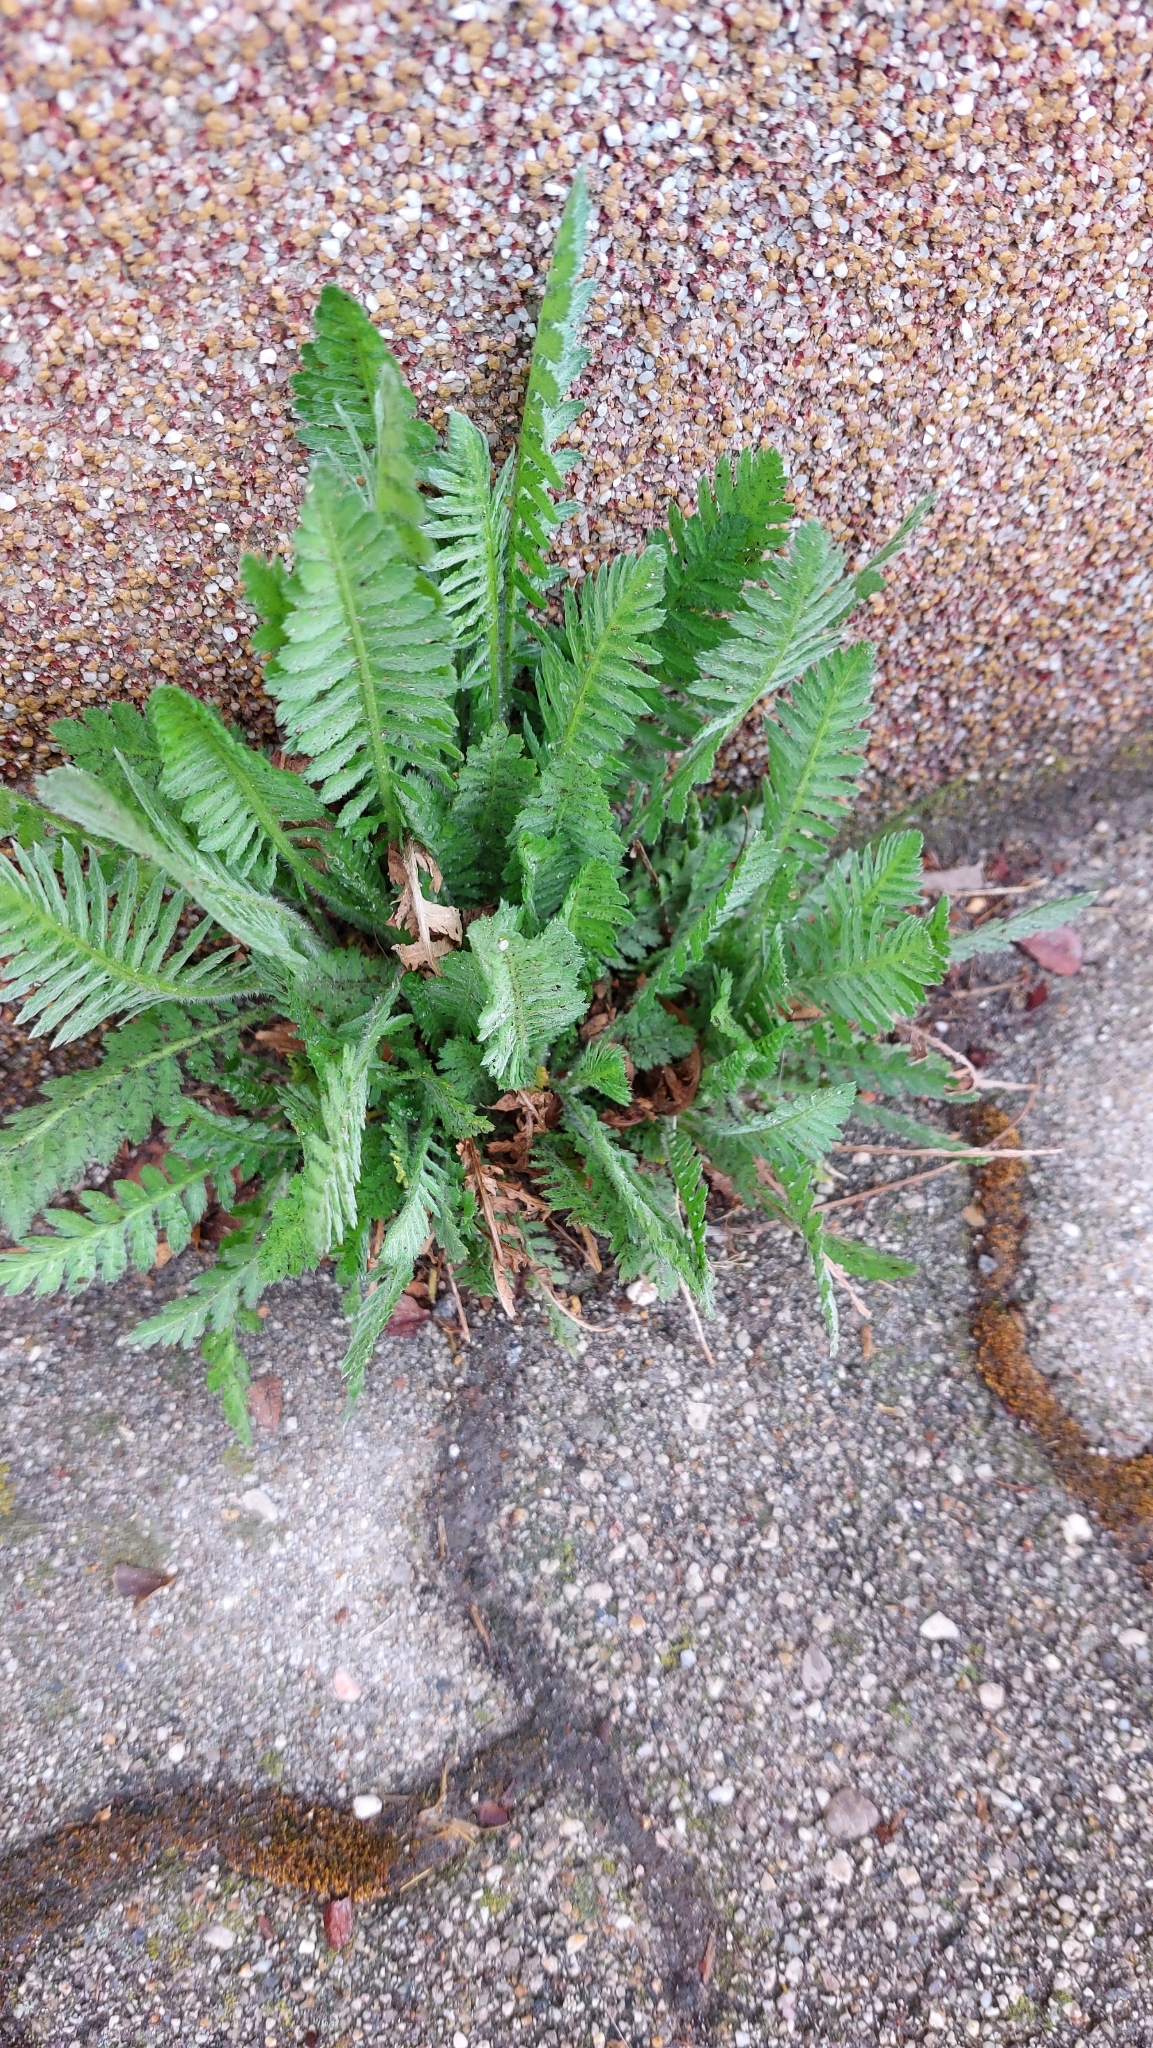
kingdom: Plantae
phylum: Tracheophyta
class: Magnoliopsida
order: Asterales
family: Asteraceae
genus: Achillea
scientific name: Achillea filipendulina
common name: Fernleaf yarrow
